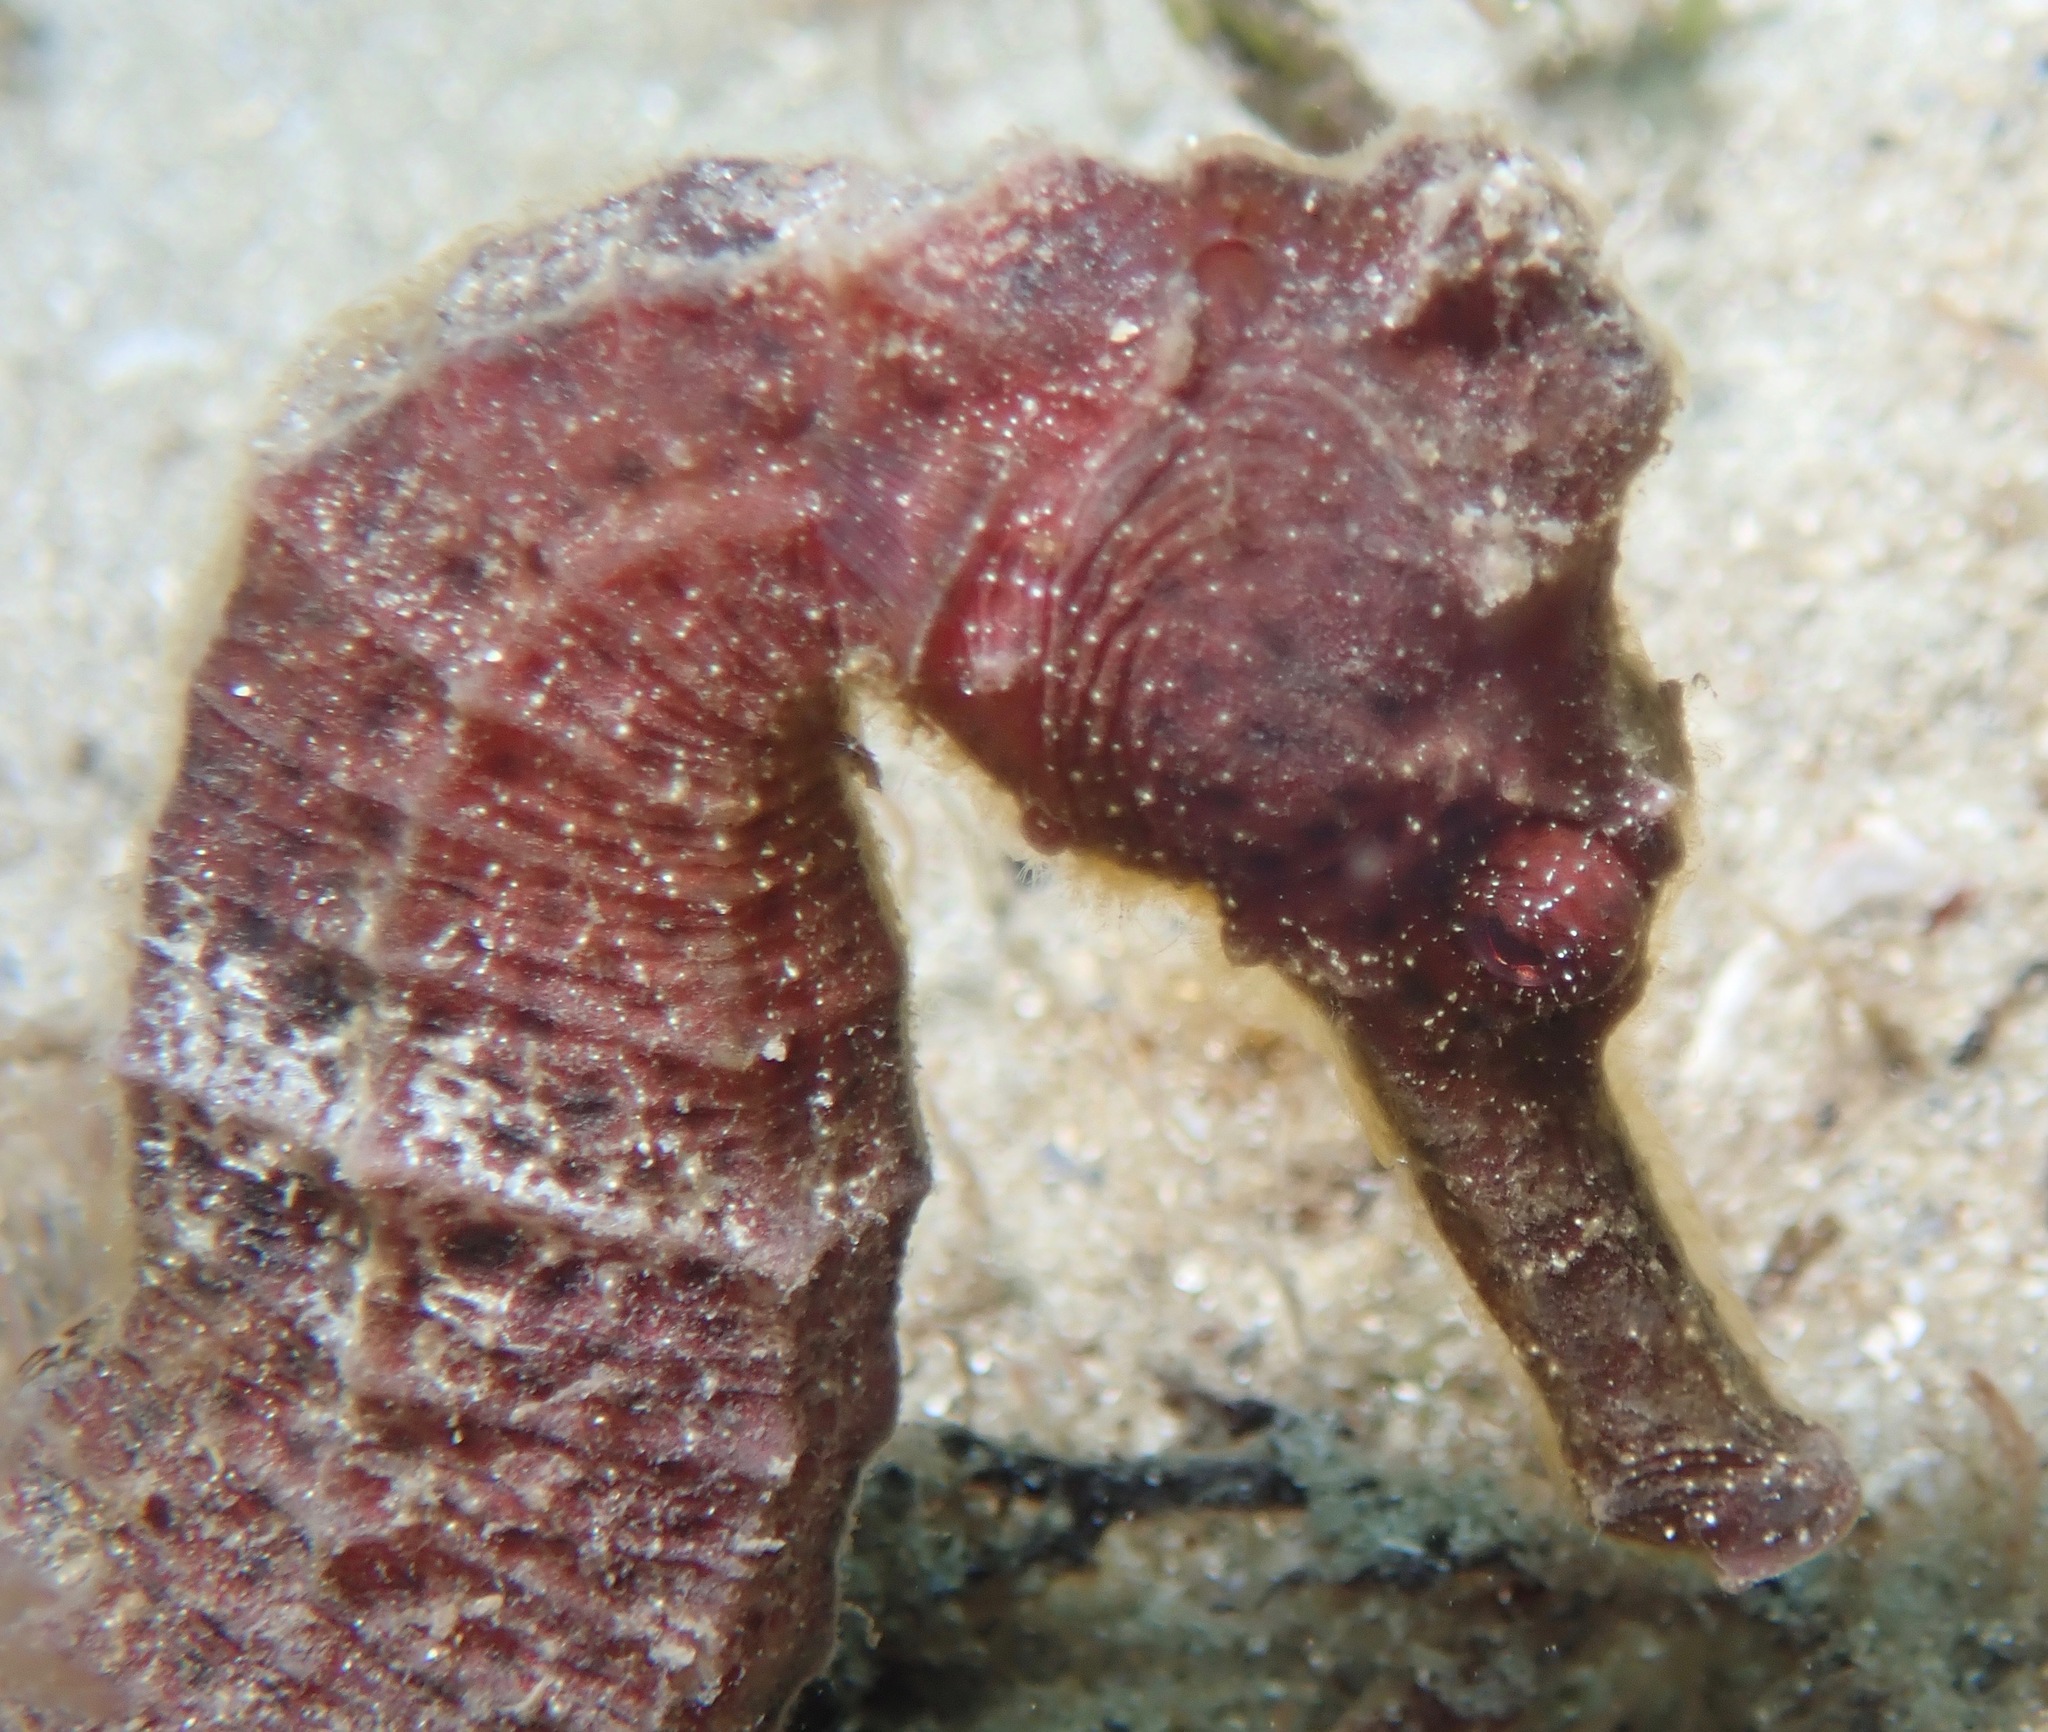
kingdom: Animalia
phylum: Chordata
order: Syngnathiformes
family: Syngnathidae
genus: Hippocampus
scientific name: Hippocampus reidi
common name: Slender seahorse
